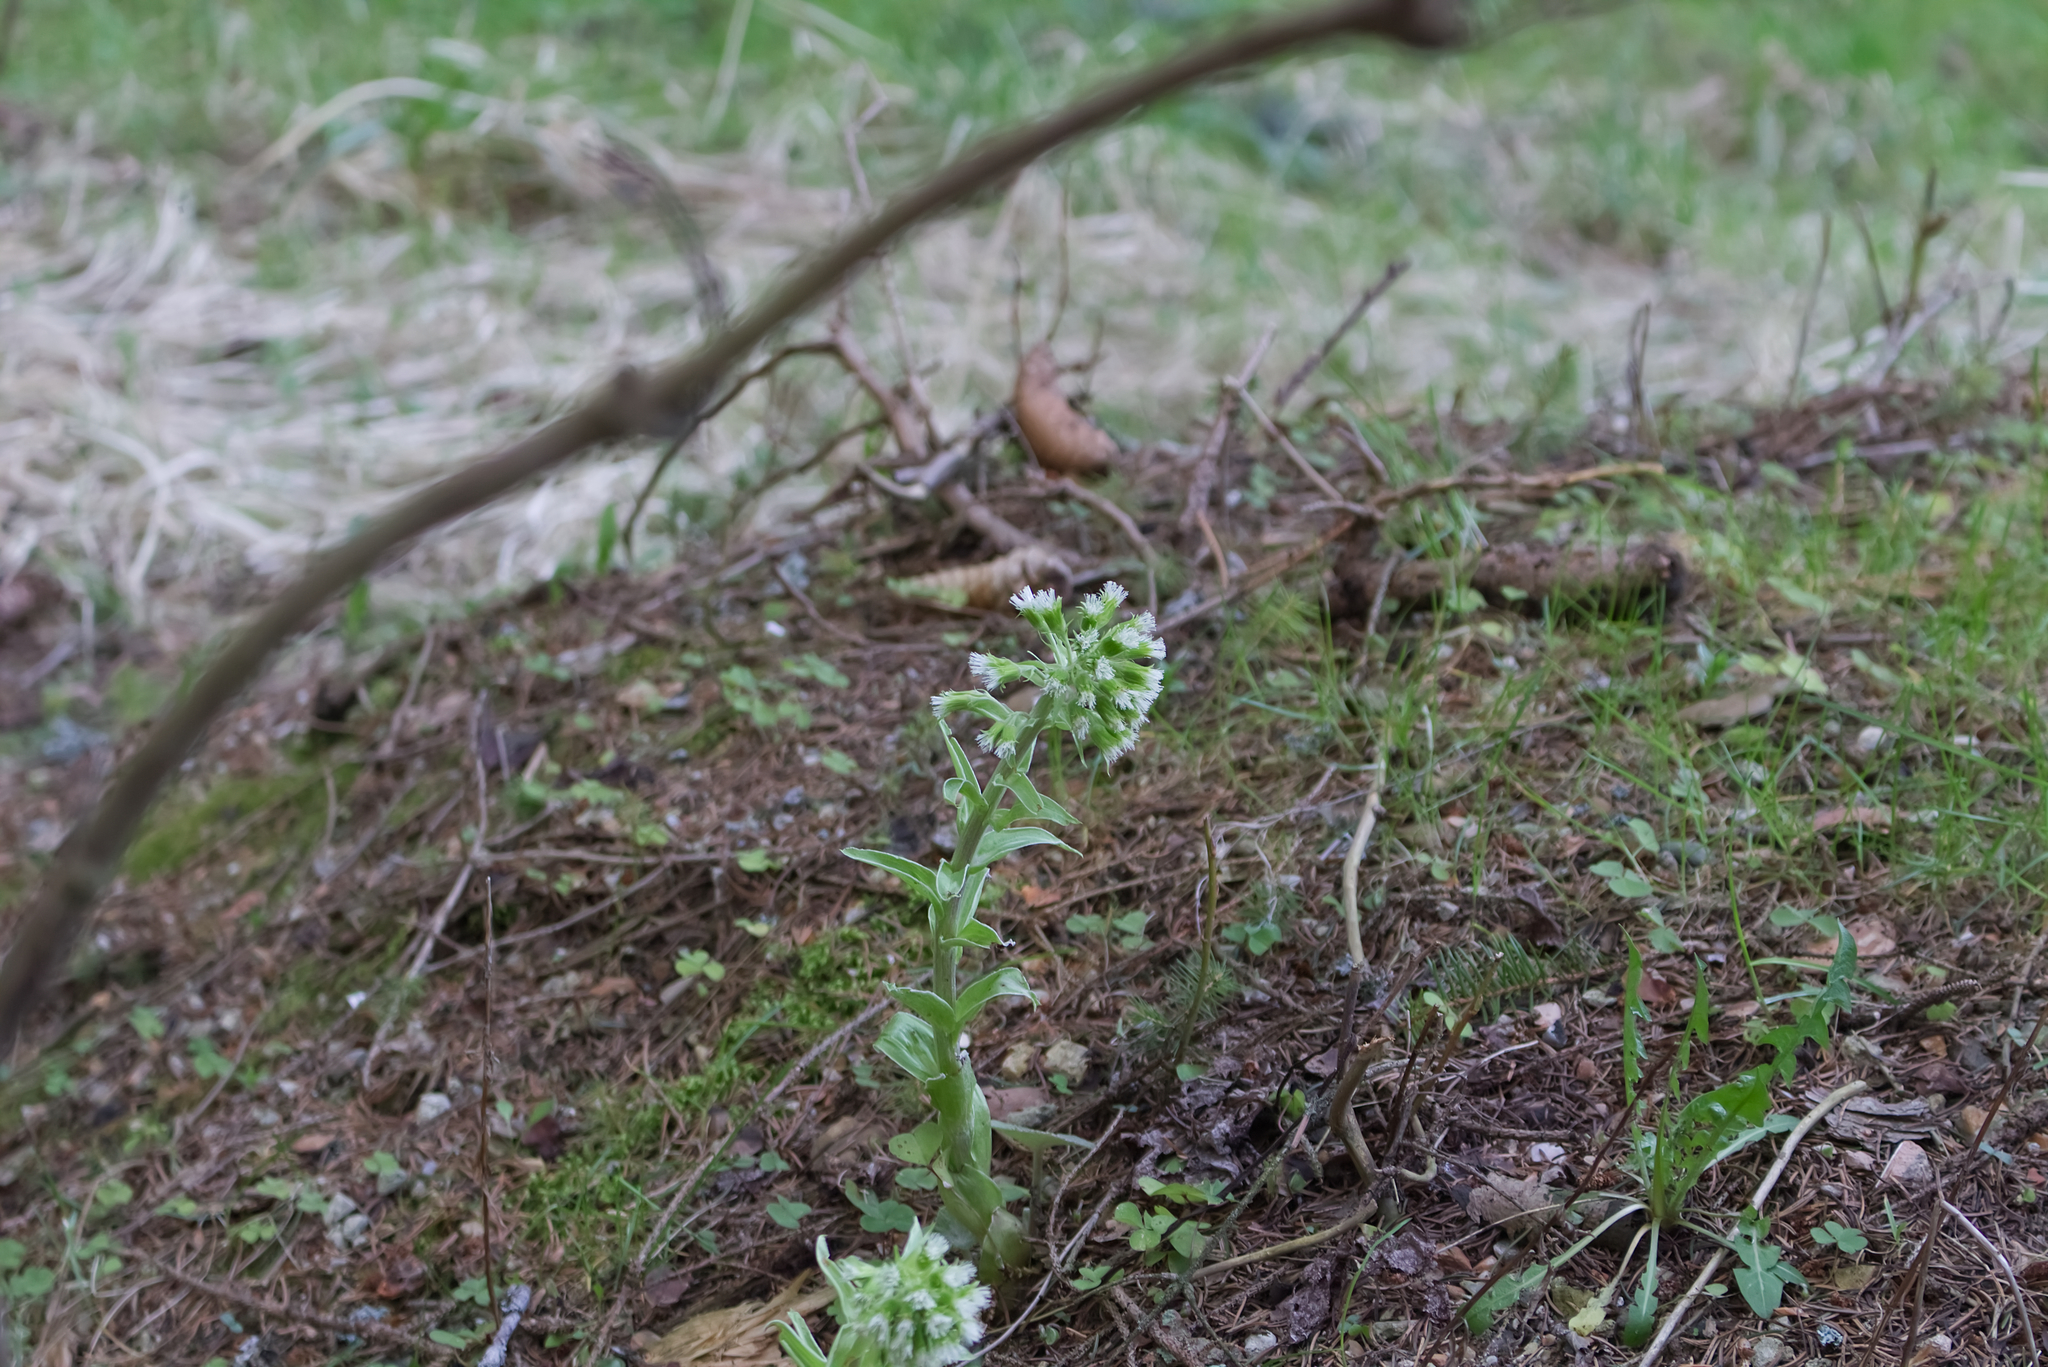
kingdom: Plantae
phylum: Tracheophyta
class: Magnoliopsida
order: Asterales
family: Asteraceae
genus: Petasites
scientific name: Petasites albus
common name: White butterbur
